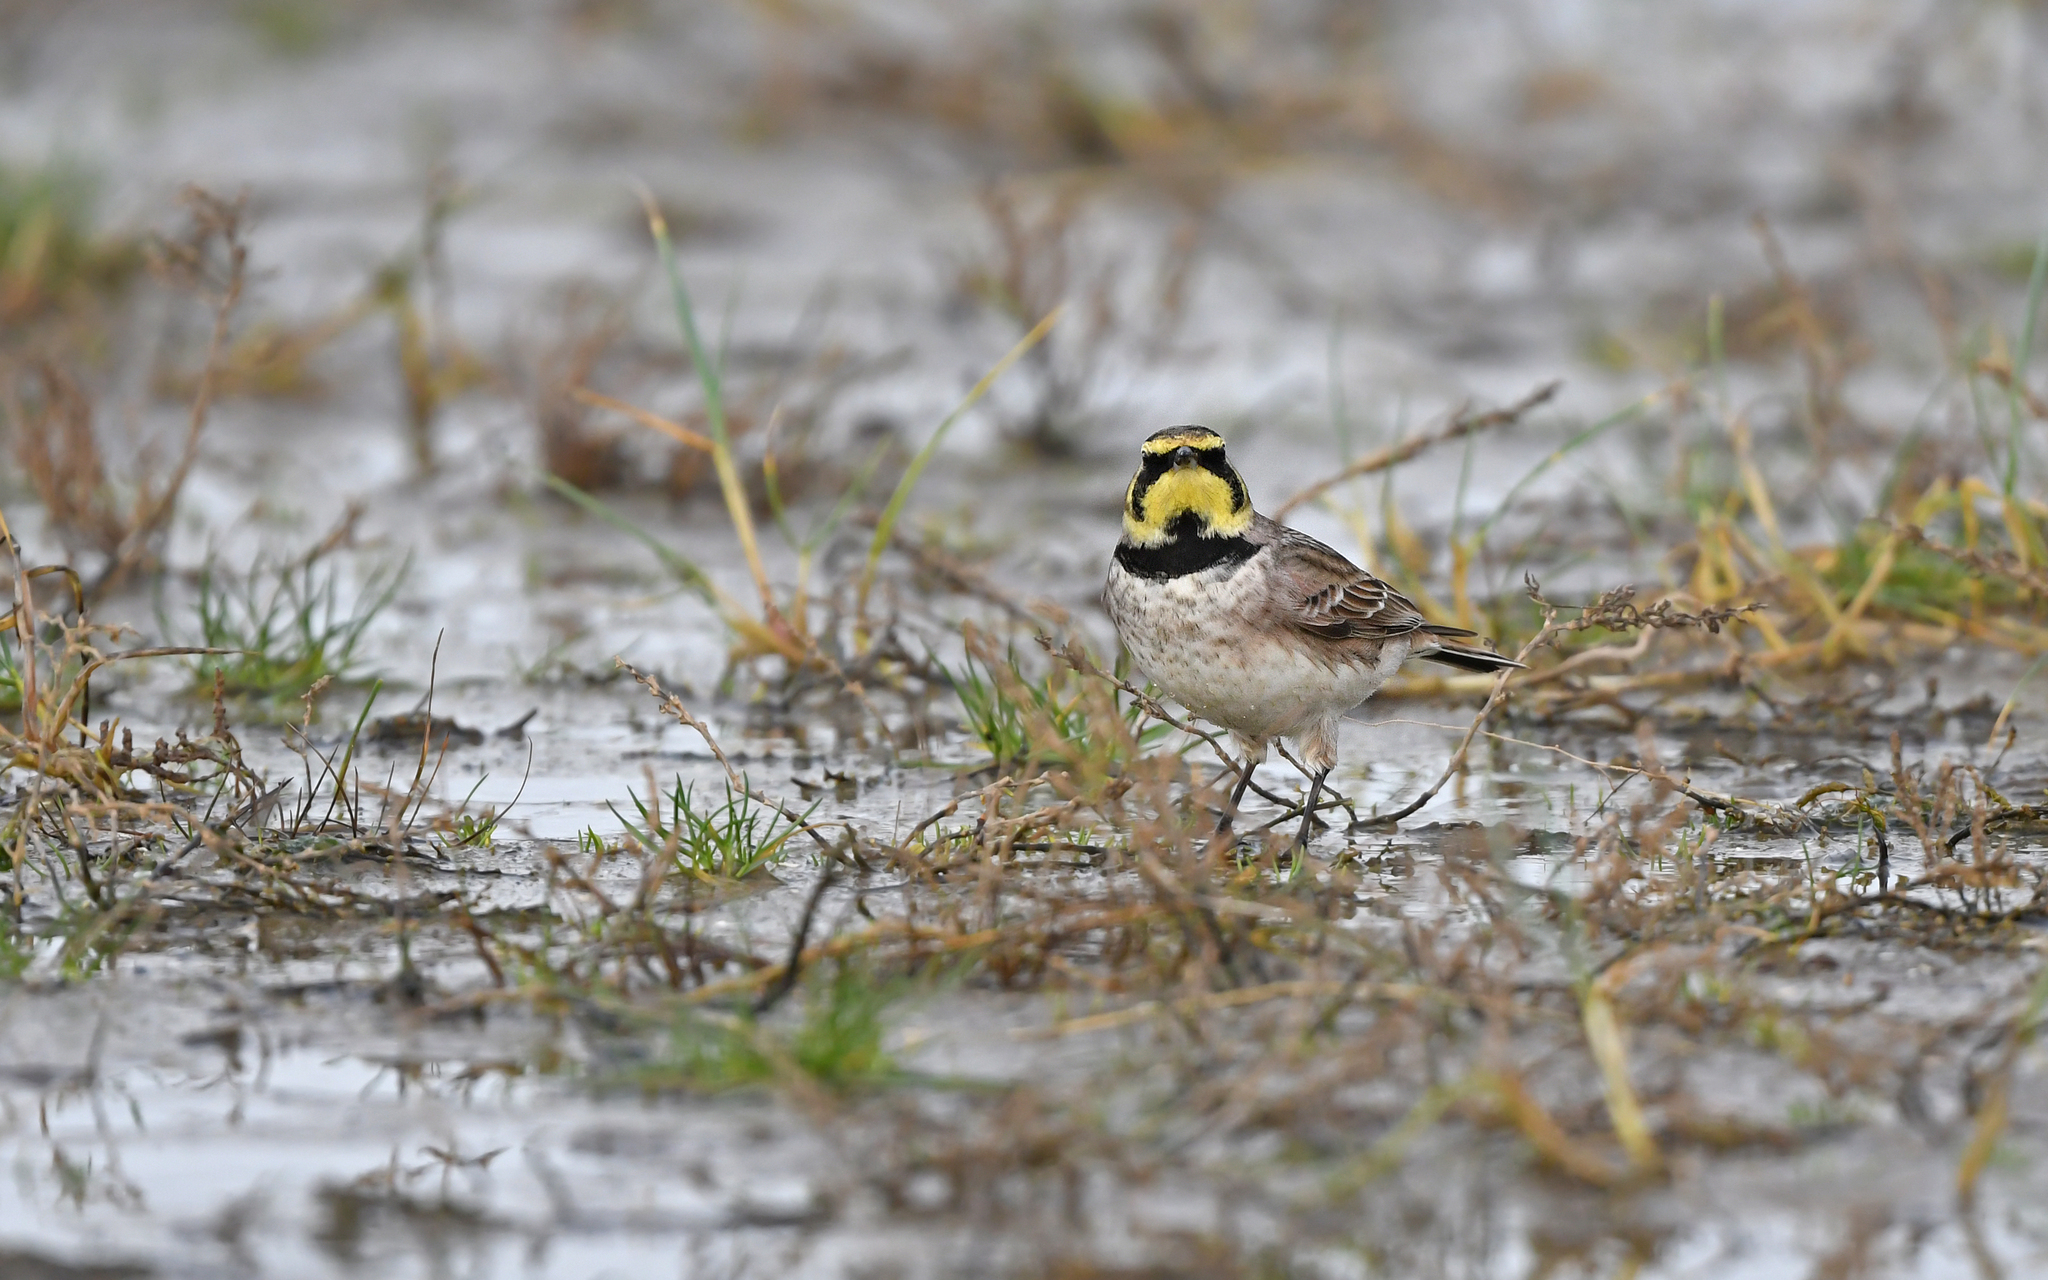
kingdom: Animalia
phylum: Chordata
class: Aves
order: Passeriformes
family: Alaudidae
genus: Eremophila
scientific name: Eremophila alpestris
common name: Horned lark
